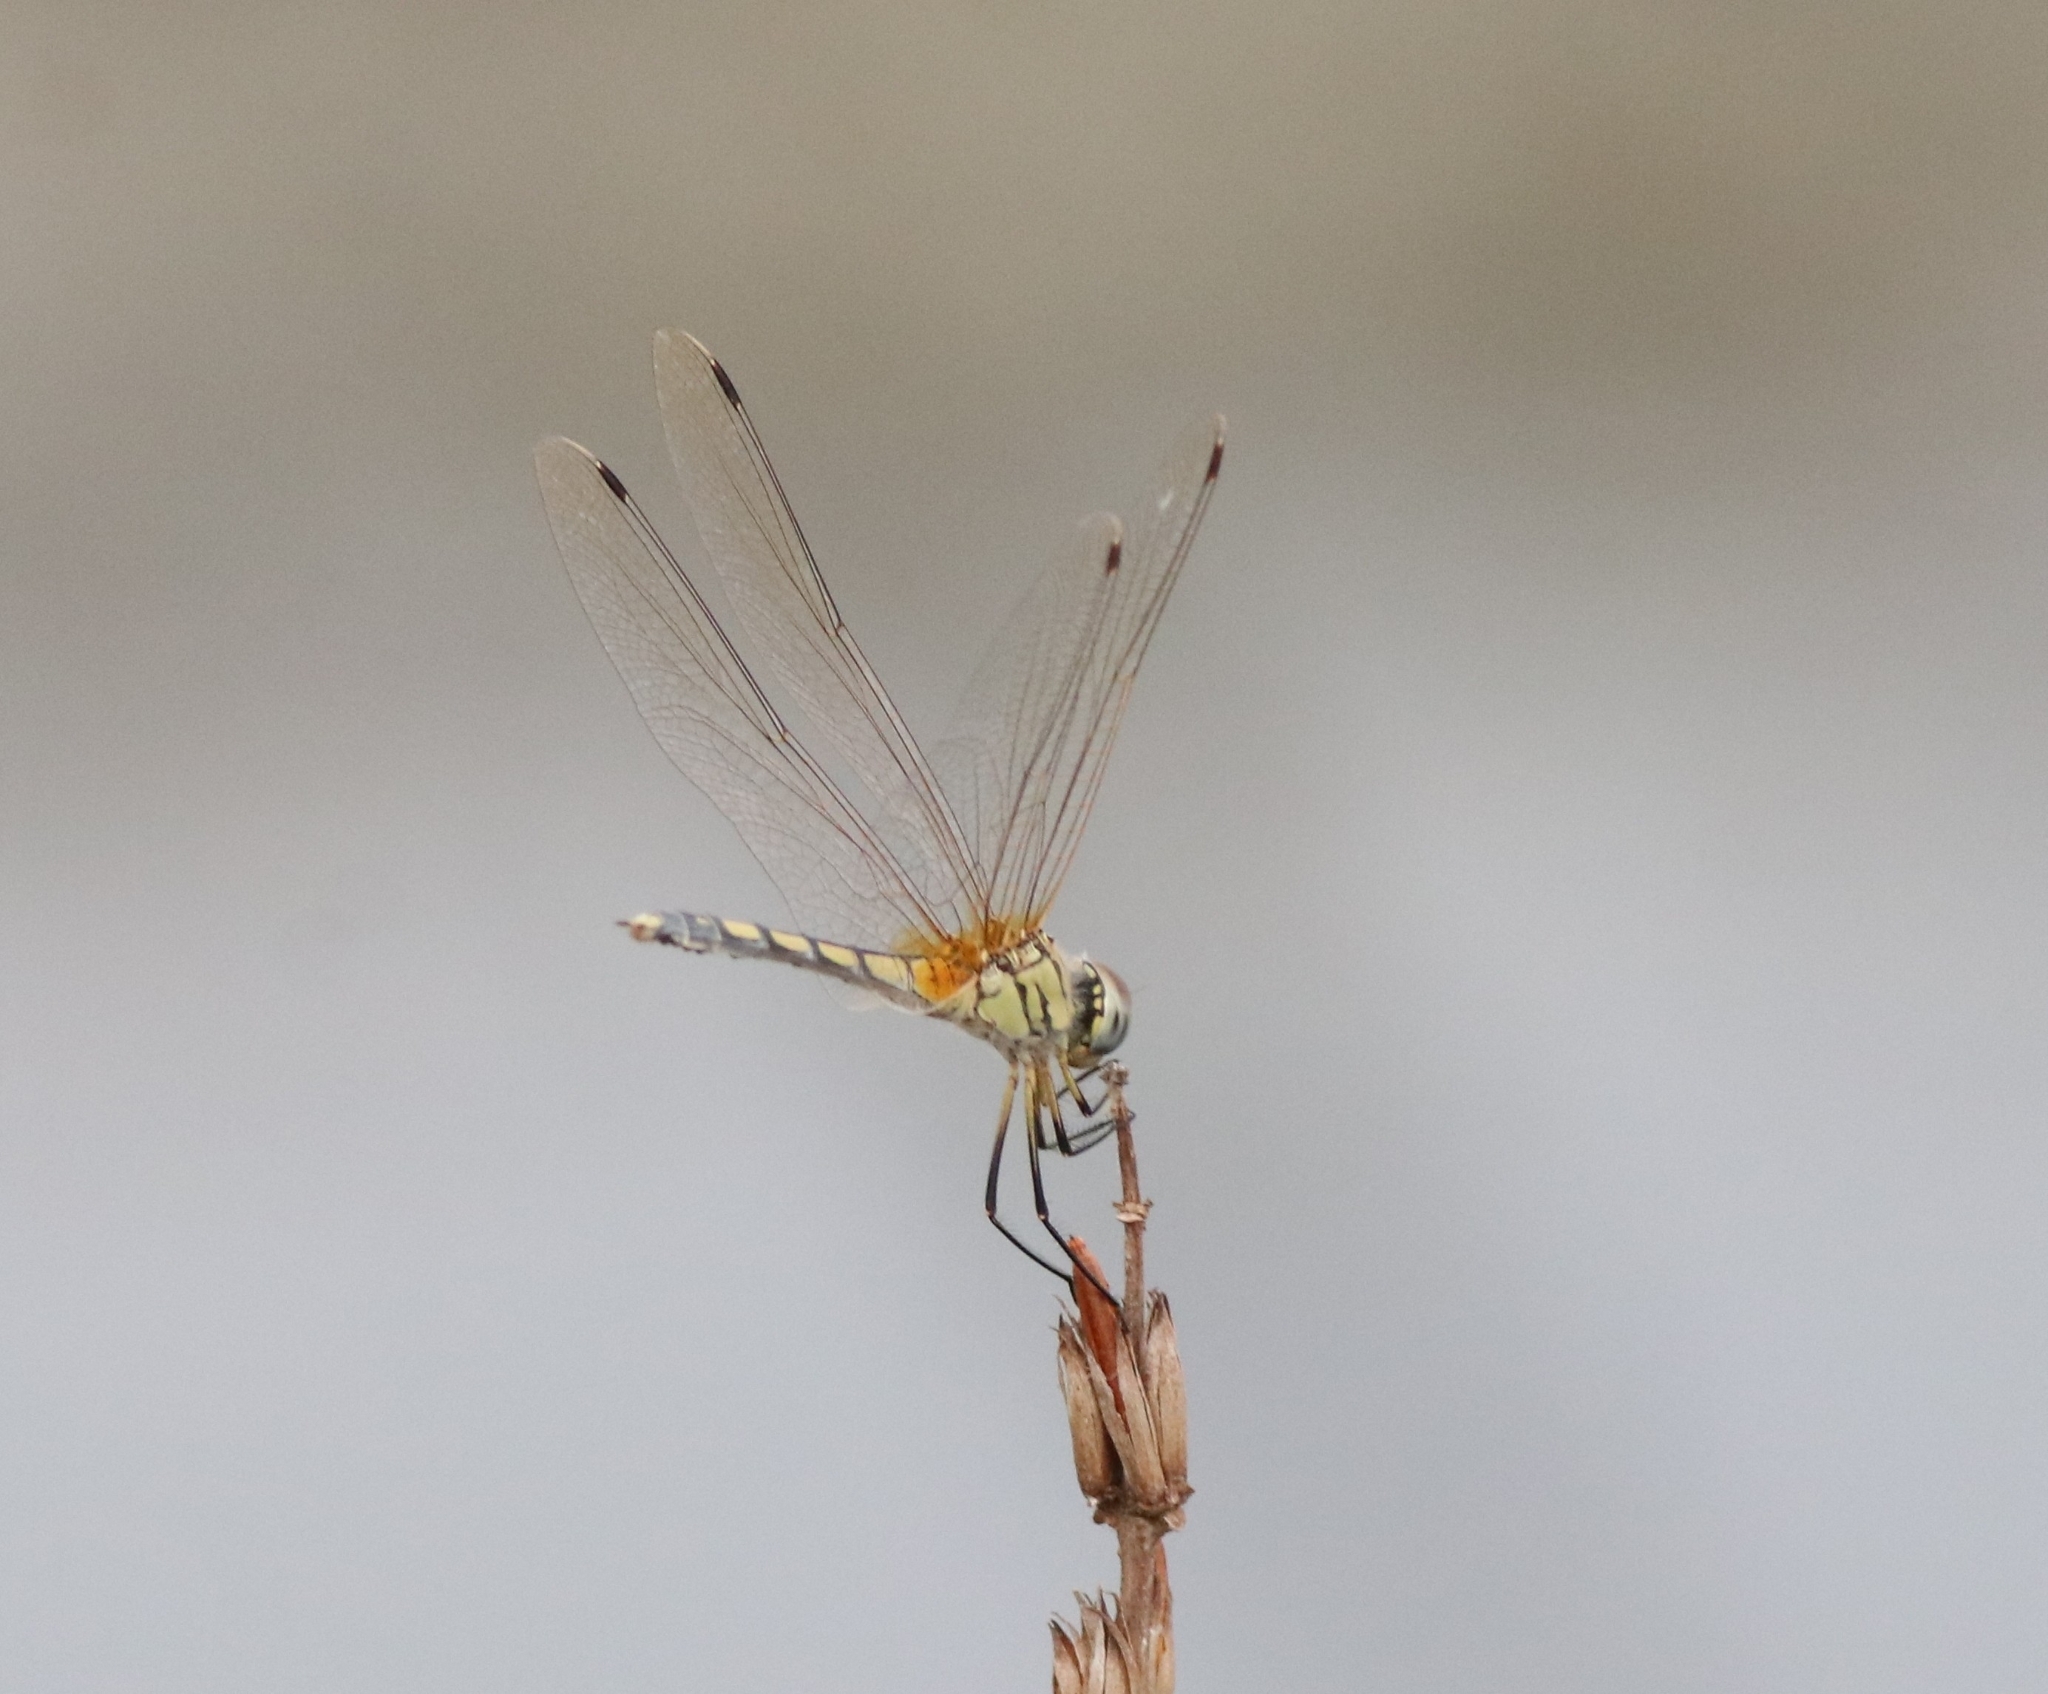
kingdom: Animalia
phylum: Arthropoda
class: Insecta
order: Odonata
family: Libellulidae
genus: Trithemis
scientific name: Trithemis pallidinervis
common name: Dancing dropwing
